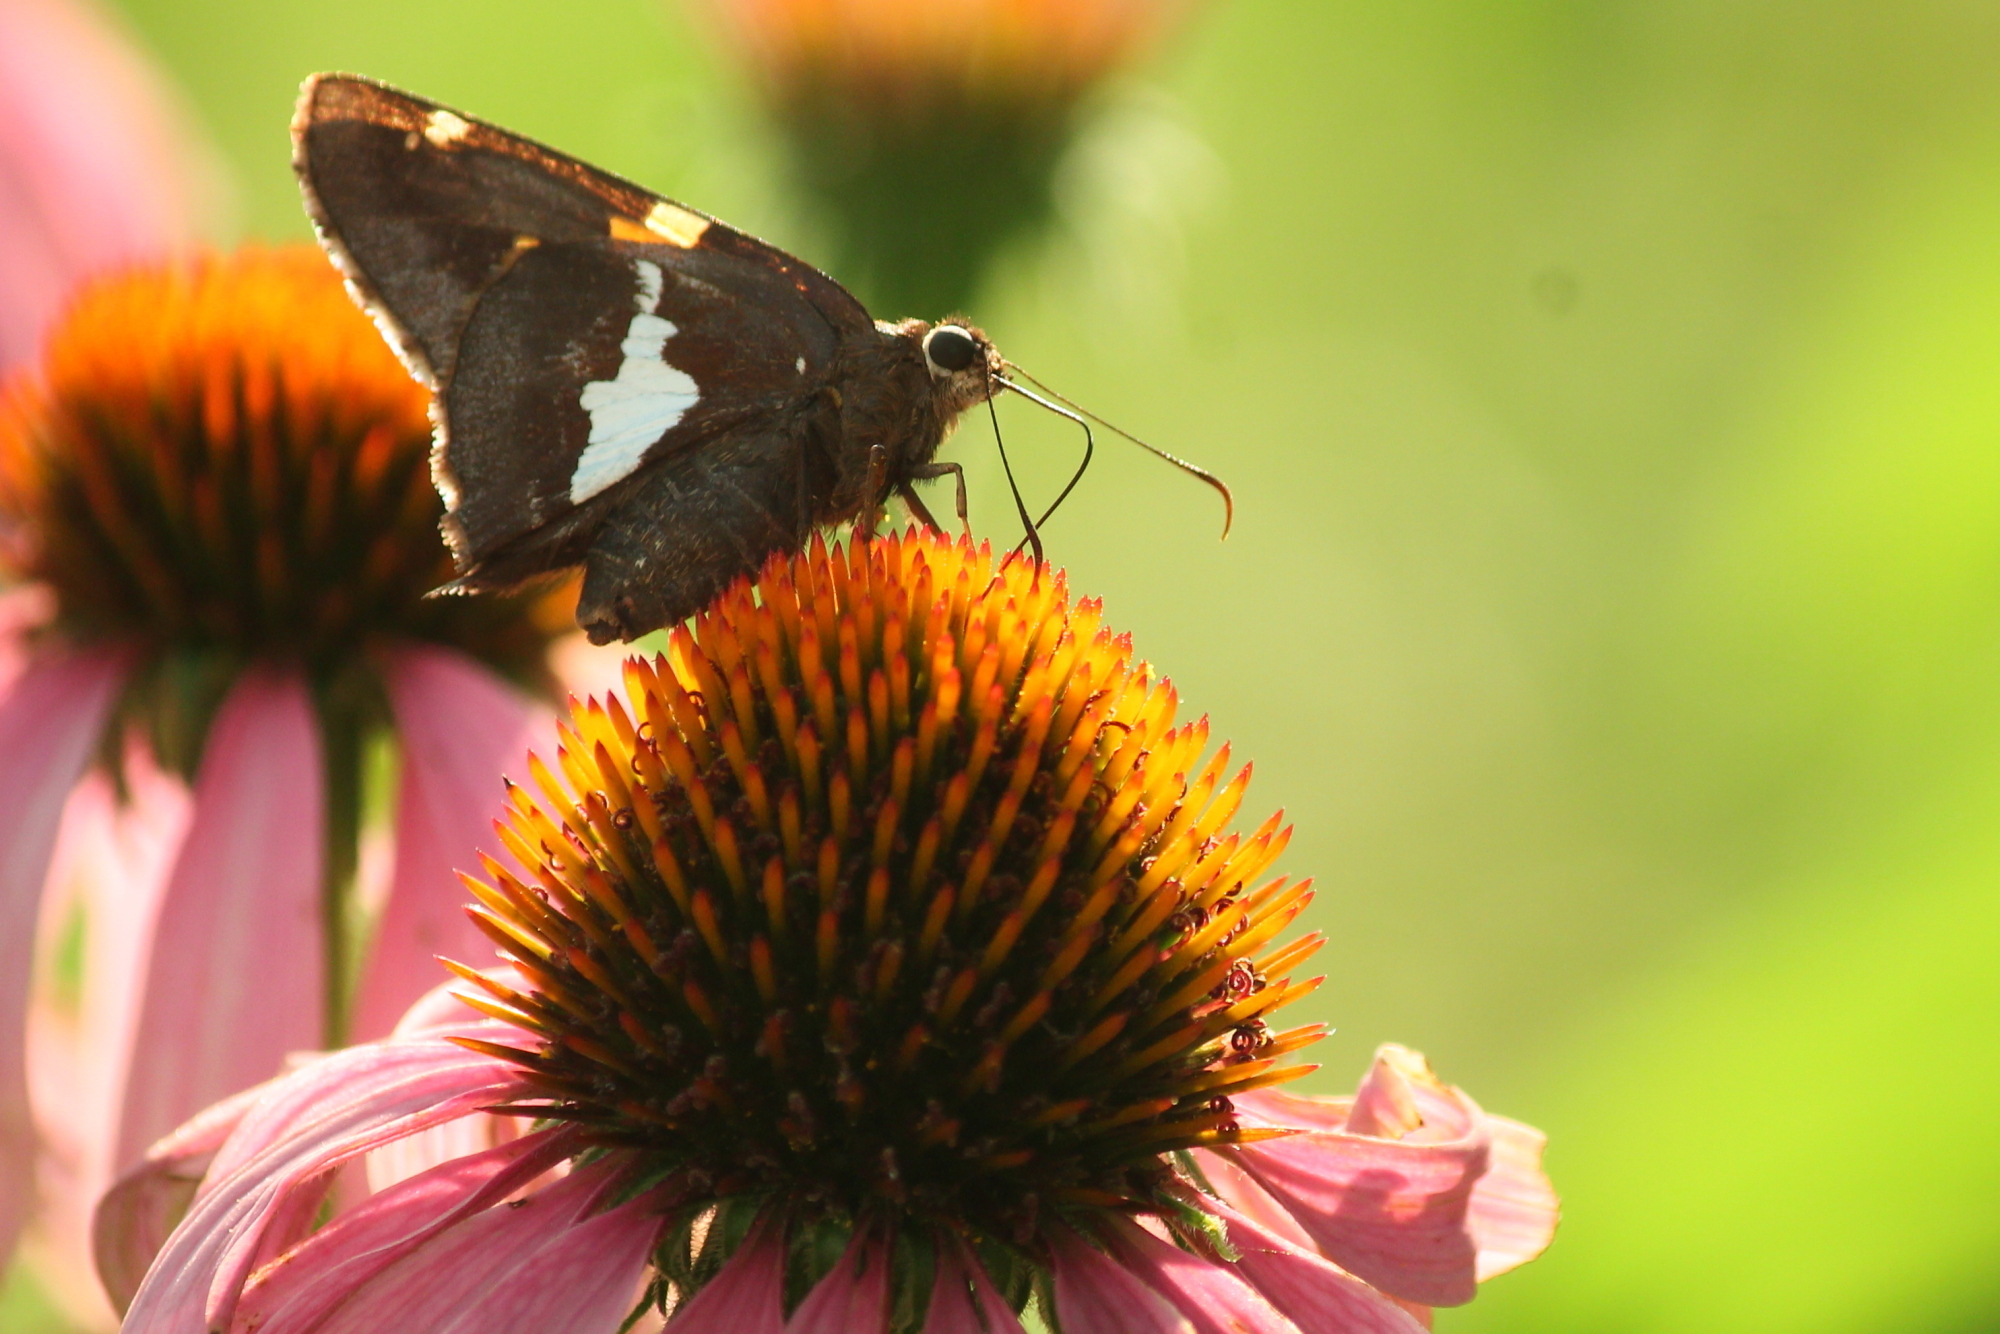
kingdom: Animalia
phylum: Arthropoda
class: Insecta
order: Lepidoptera
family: Hesperiidae
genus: Epargyreus
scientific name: Epargyreus clarus
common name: Silver-spotted skipper
